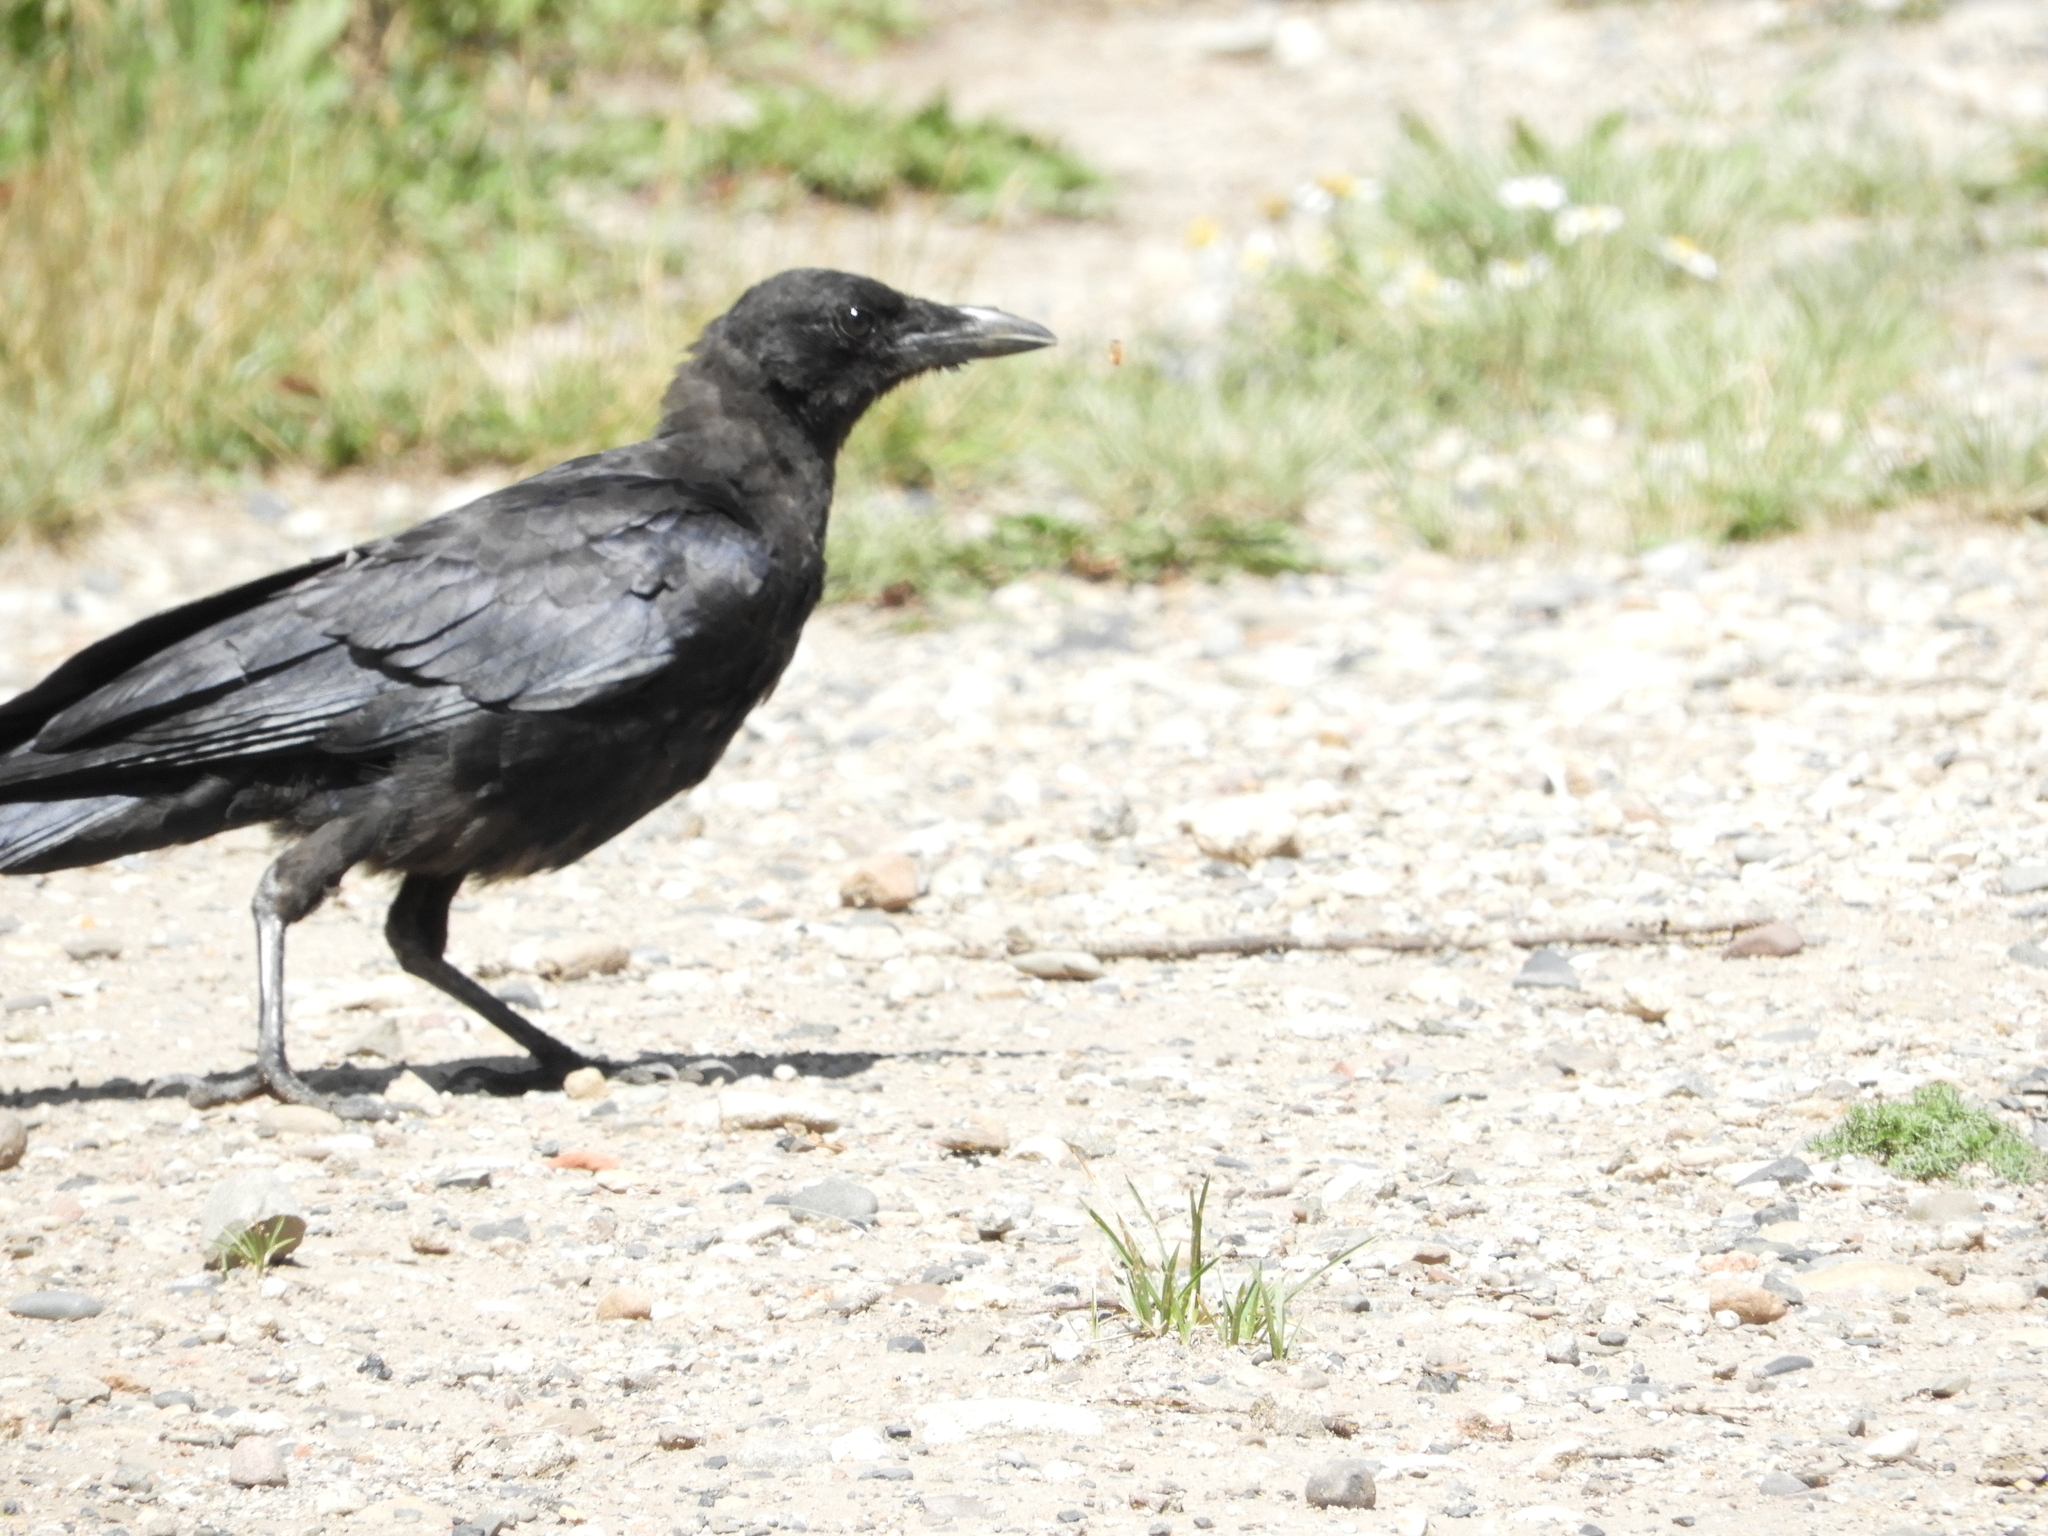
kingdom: Animalia
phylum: Chordata
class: Aves
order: Passeriformes
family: Corvidae
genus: Corvus
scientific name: Corvus brachyrhynchos
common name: American crow
